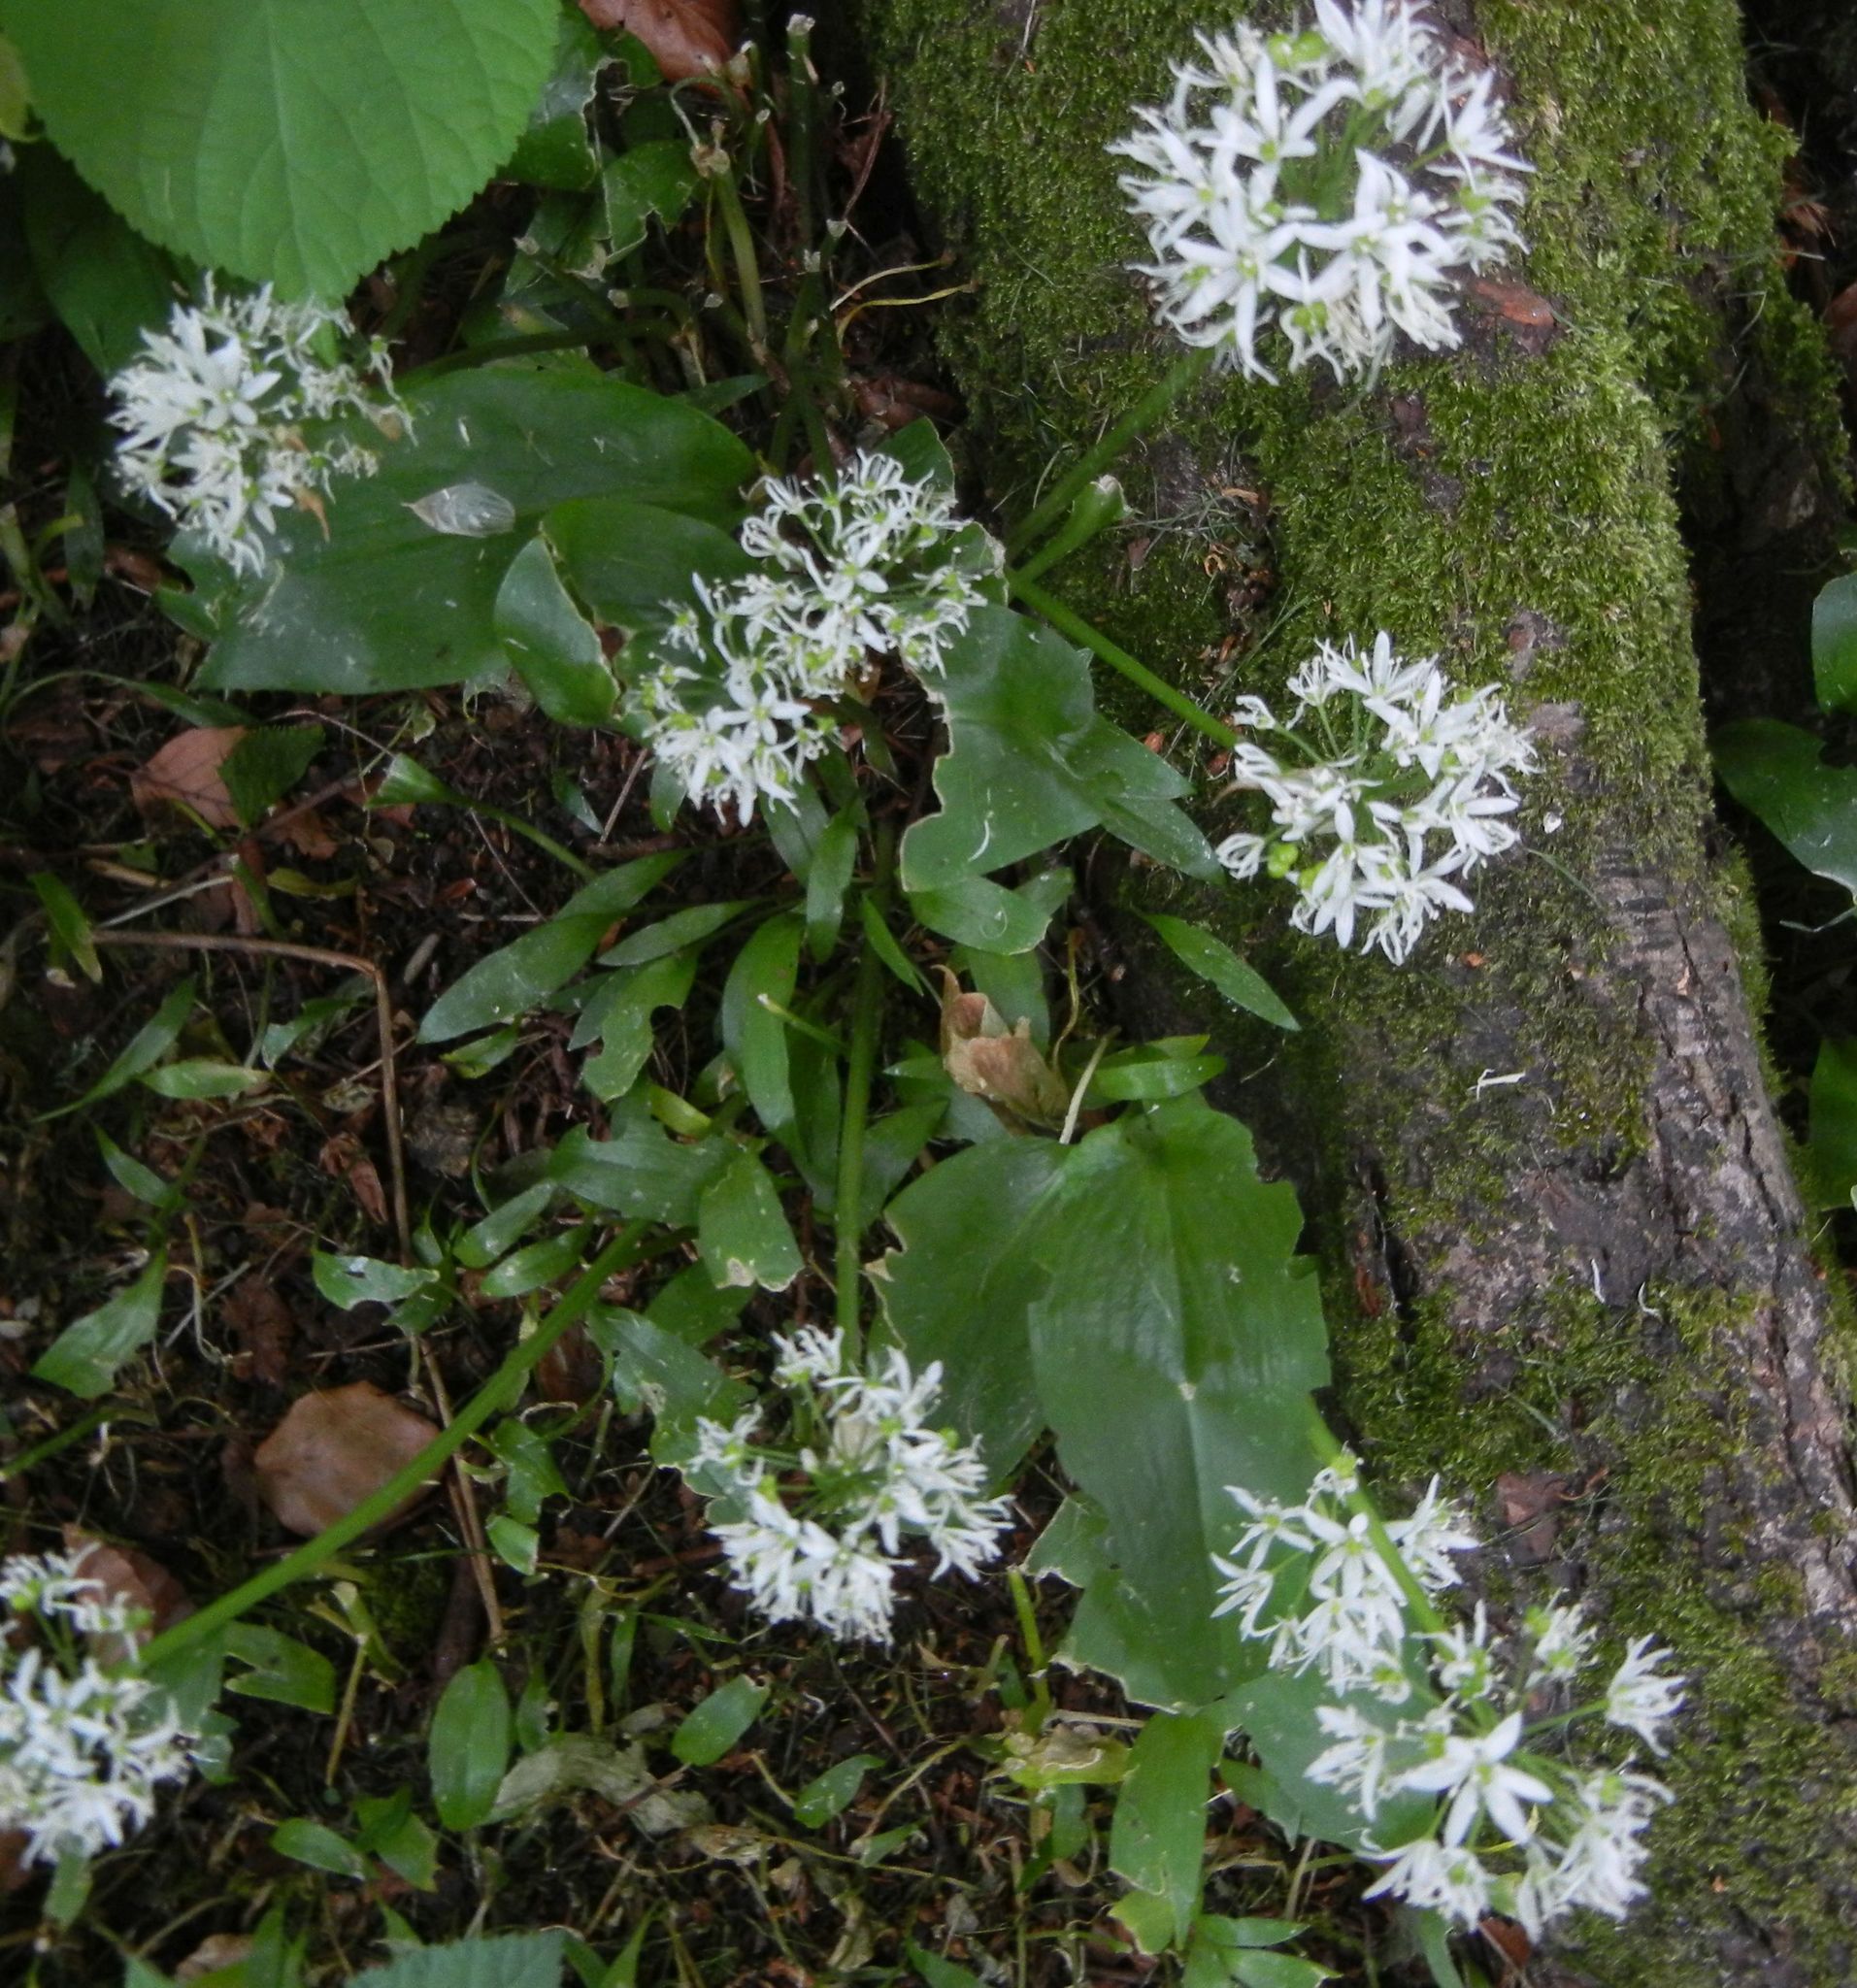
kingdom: Plantae
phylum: Tracheophyta
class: Liliopsida
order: Asparagales
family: Amaryllidaceae
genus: Allium
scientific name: Allium ursinum
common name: Ramsons
